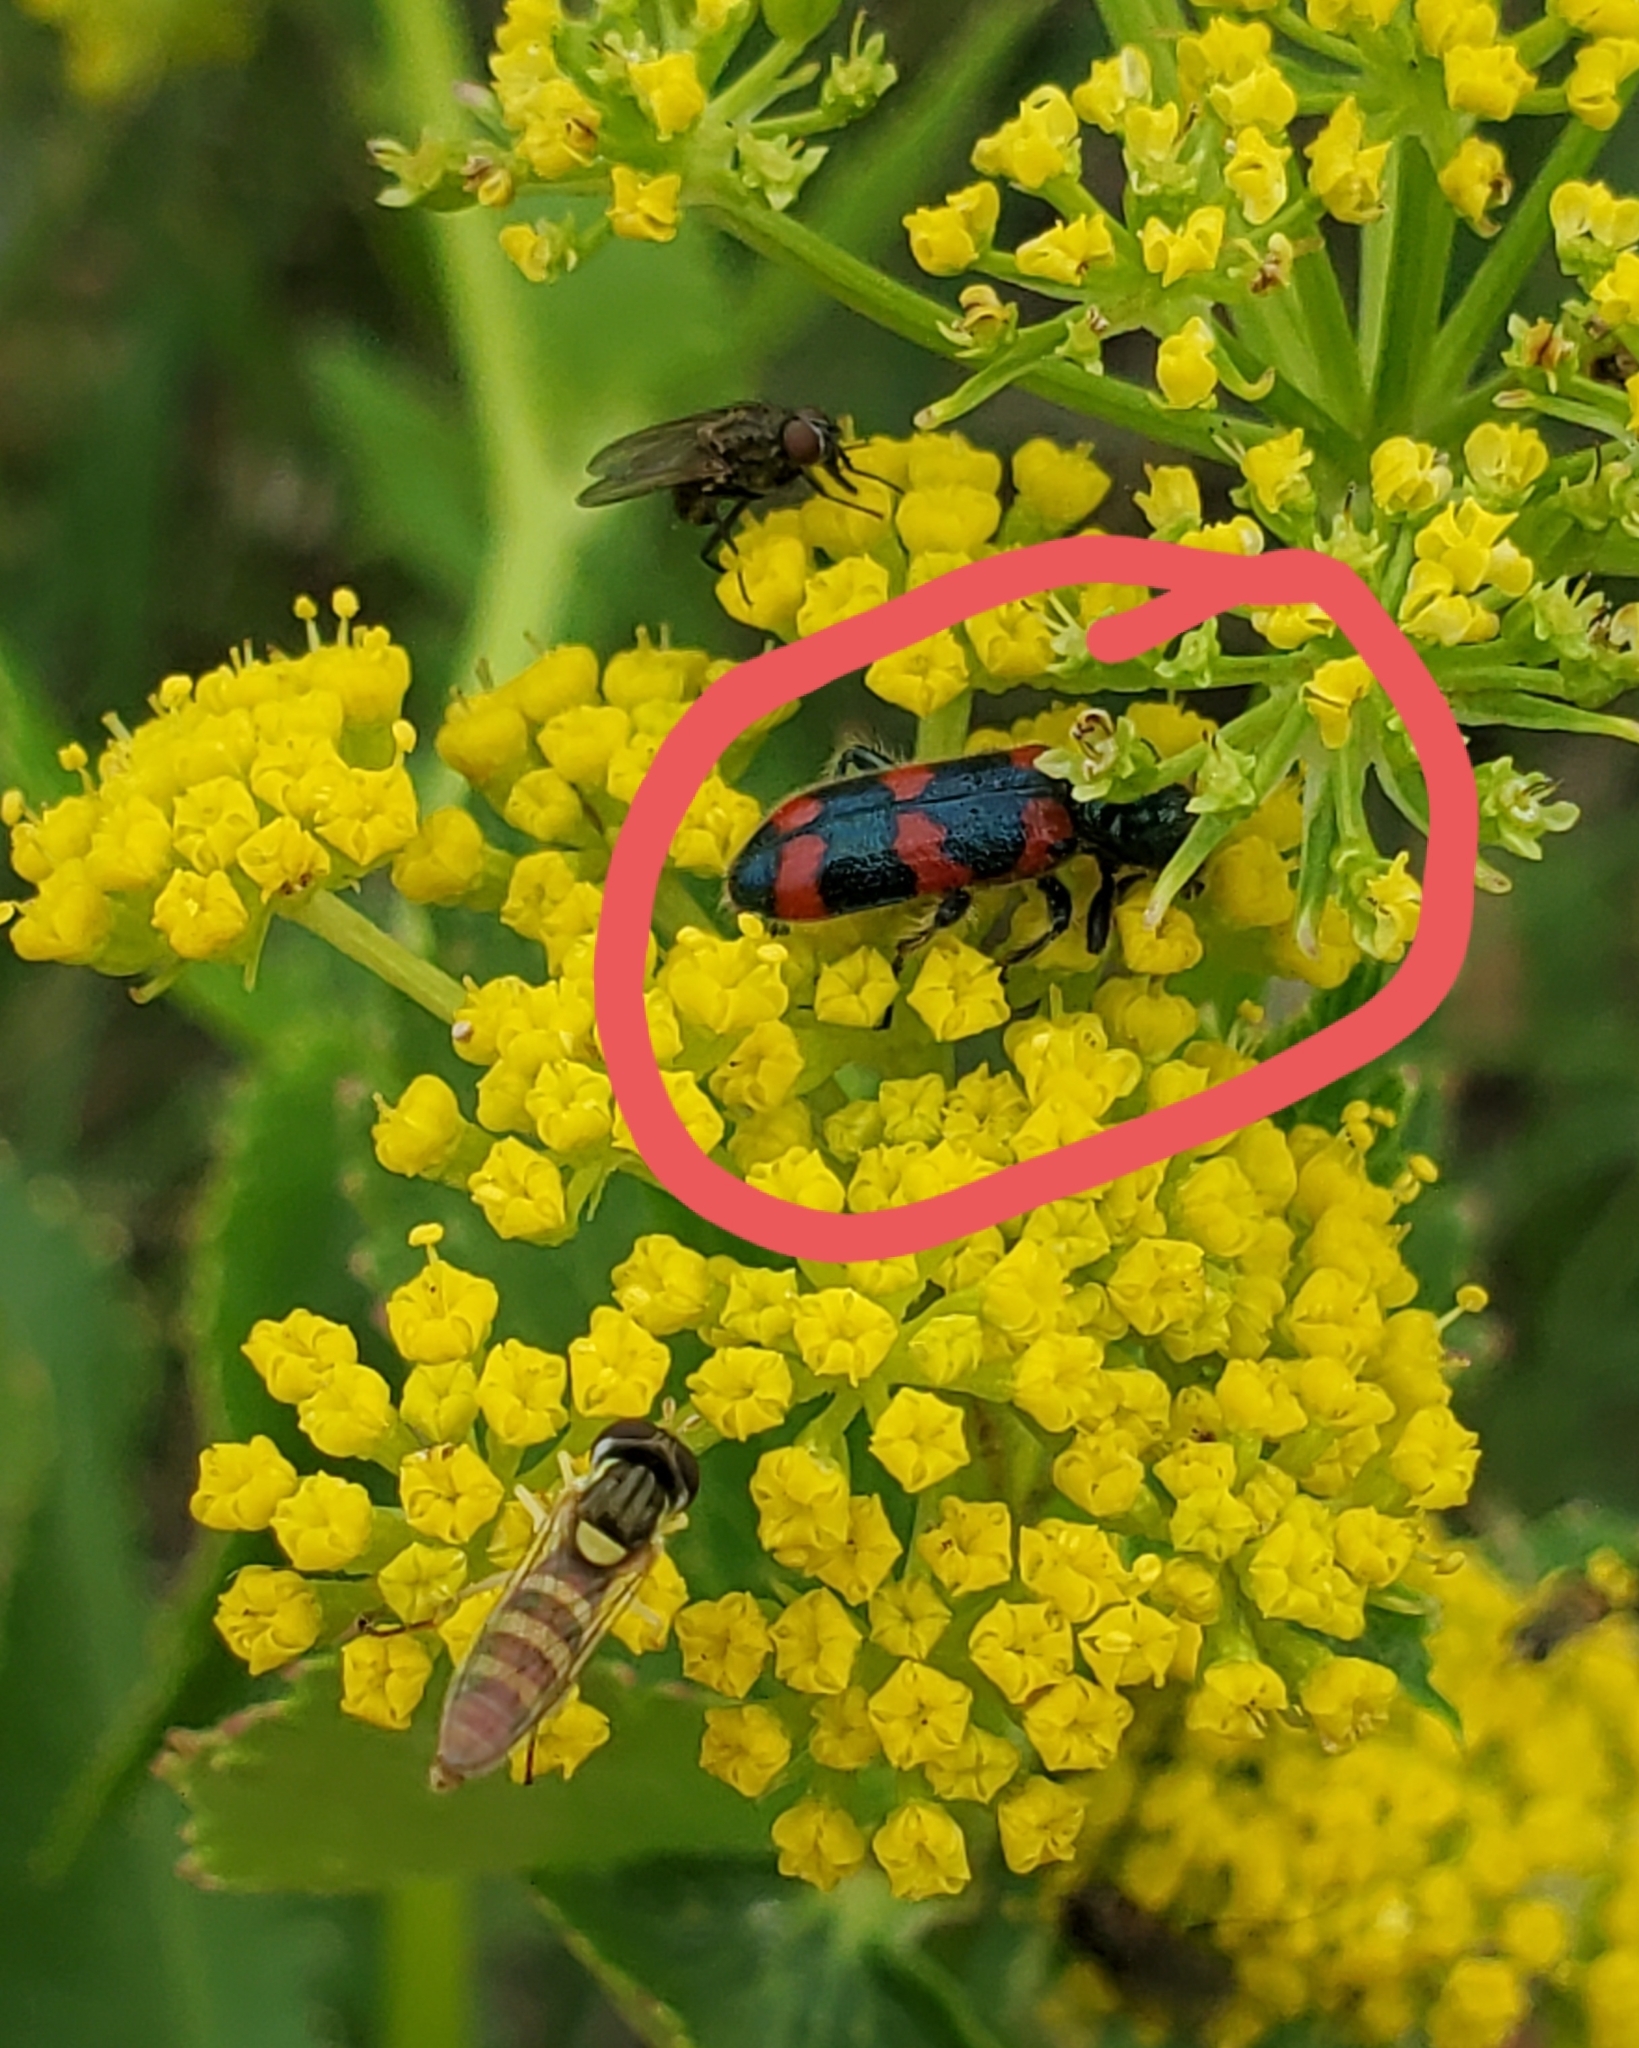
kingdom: Animalia
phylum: Arthropoda
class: Insecta
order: Coleoptera
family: Cleridae
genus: Trichodes
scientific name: Trichodes nutalli
